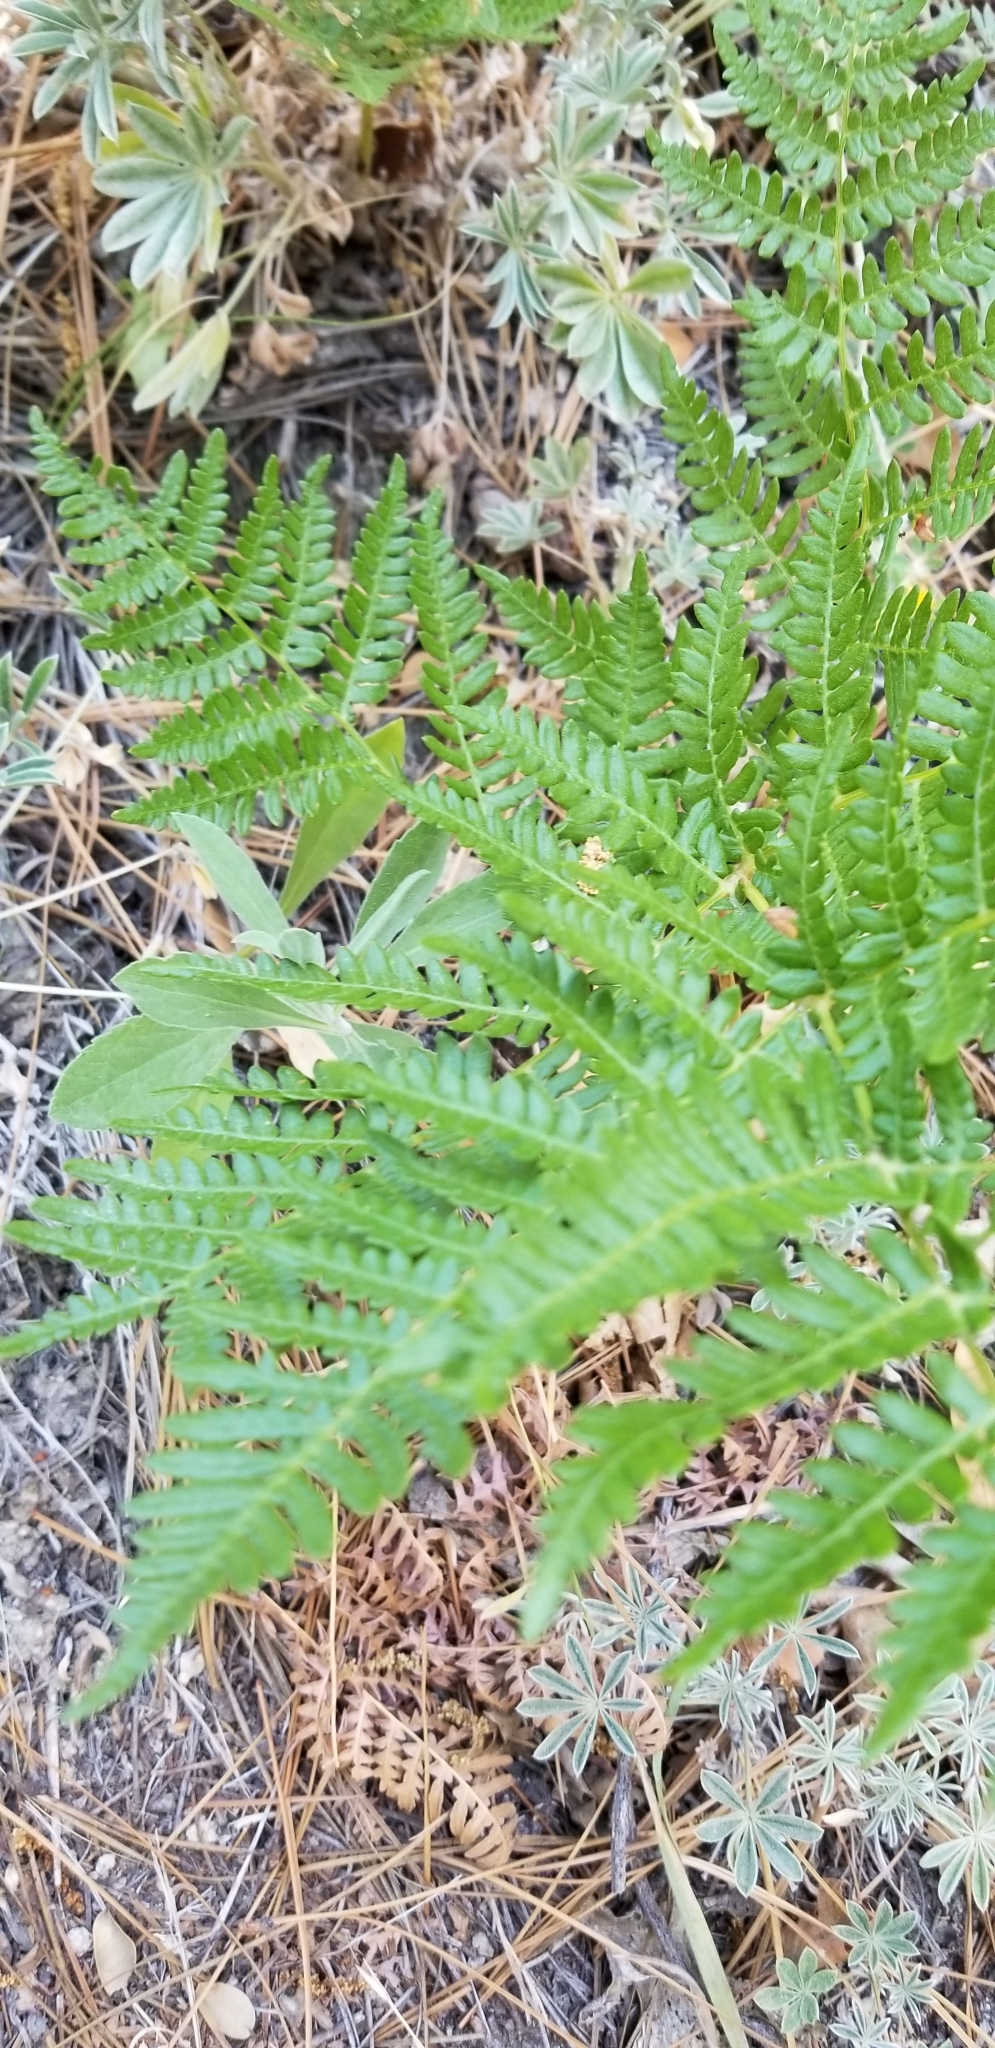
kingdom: Plantae
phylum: Tracheophyta
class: Polypodiopsida
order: Polypodiales
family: Dennstaedtiaceae
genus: Pteridium
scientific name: Pteridium aquilinum
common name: Bracken
